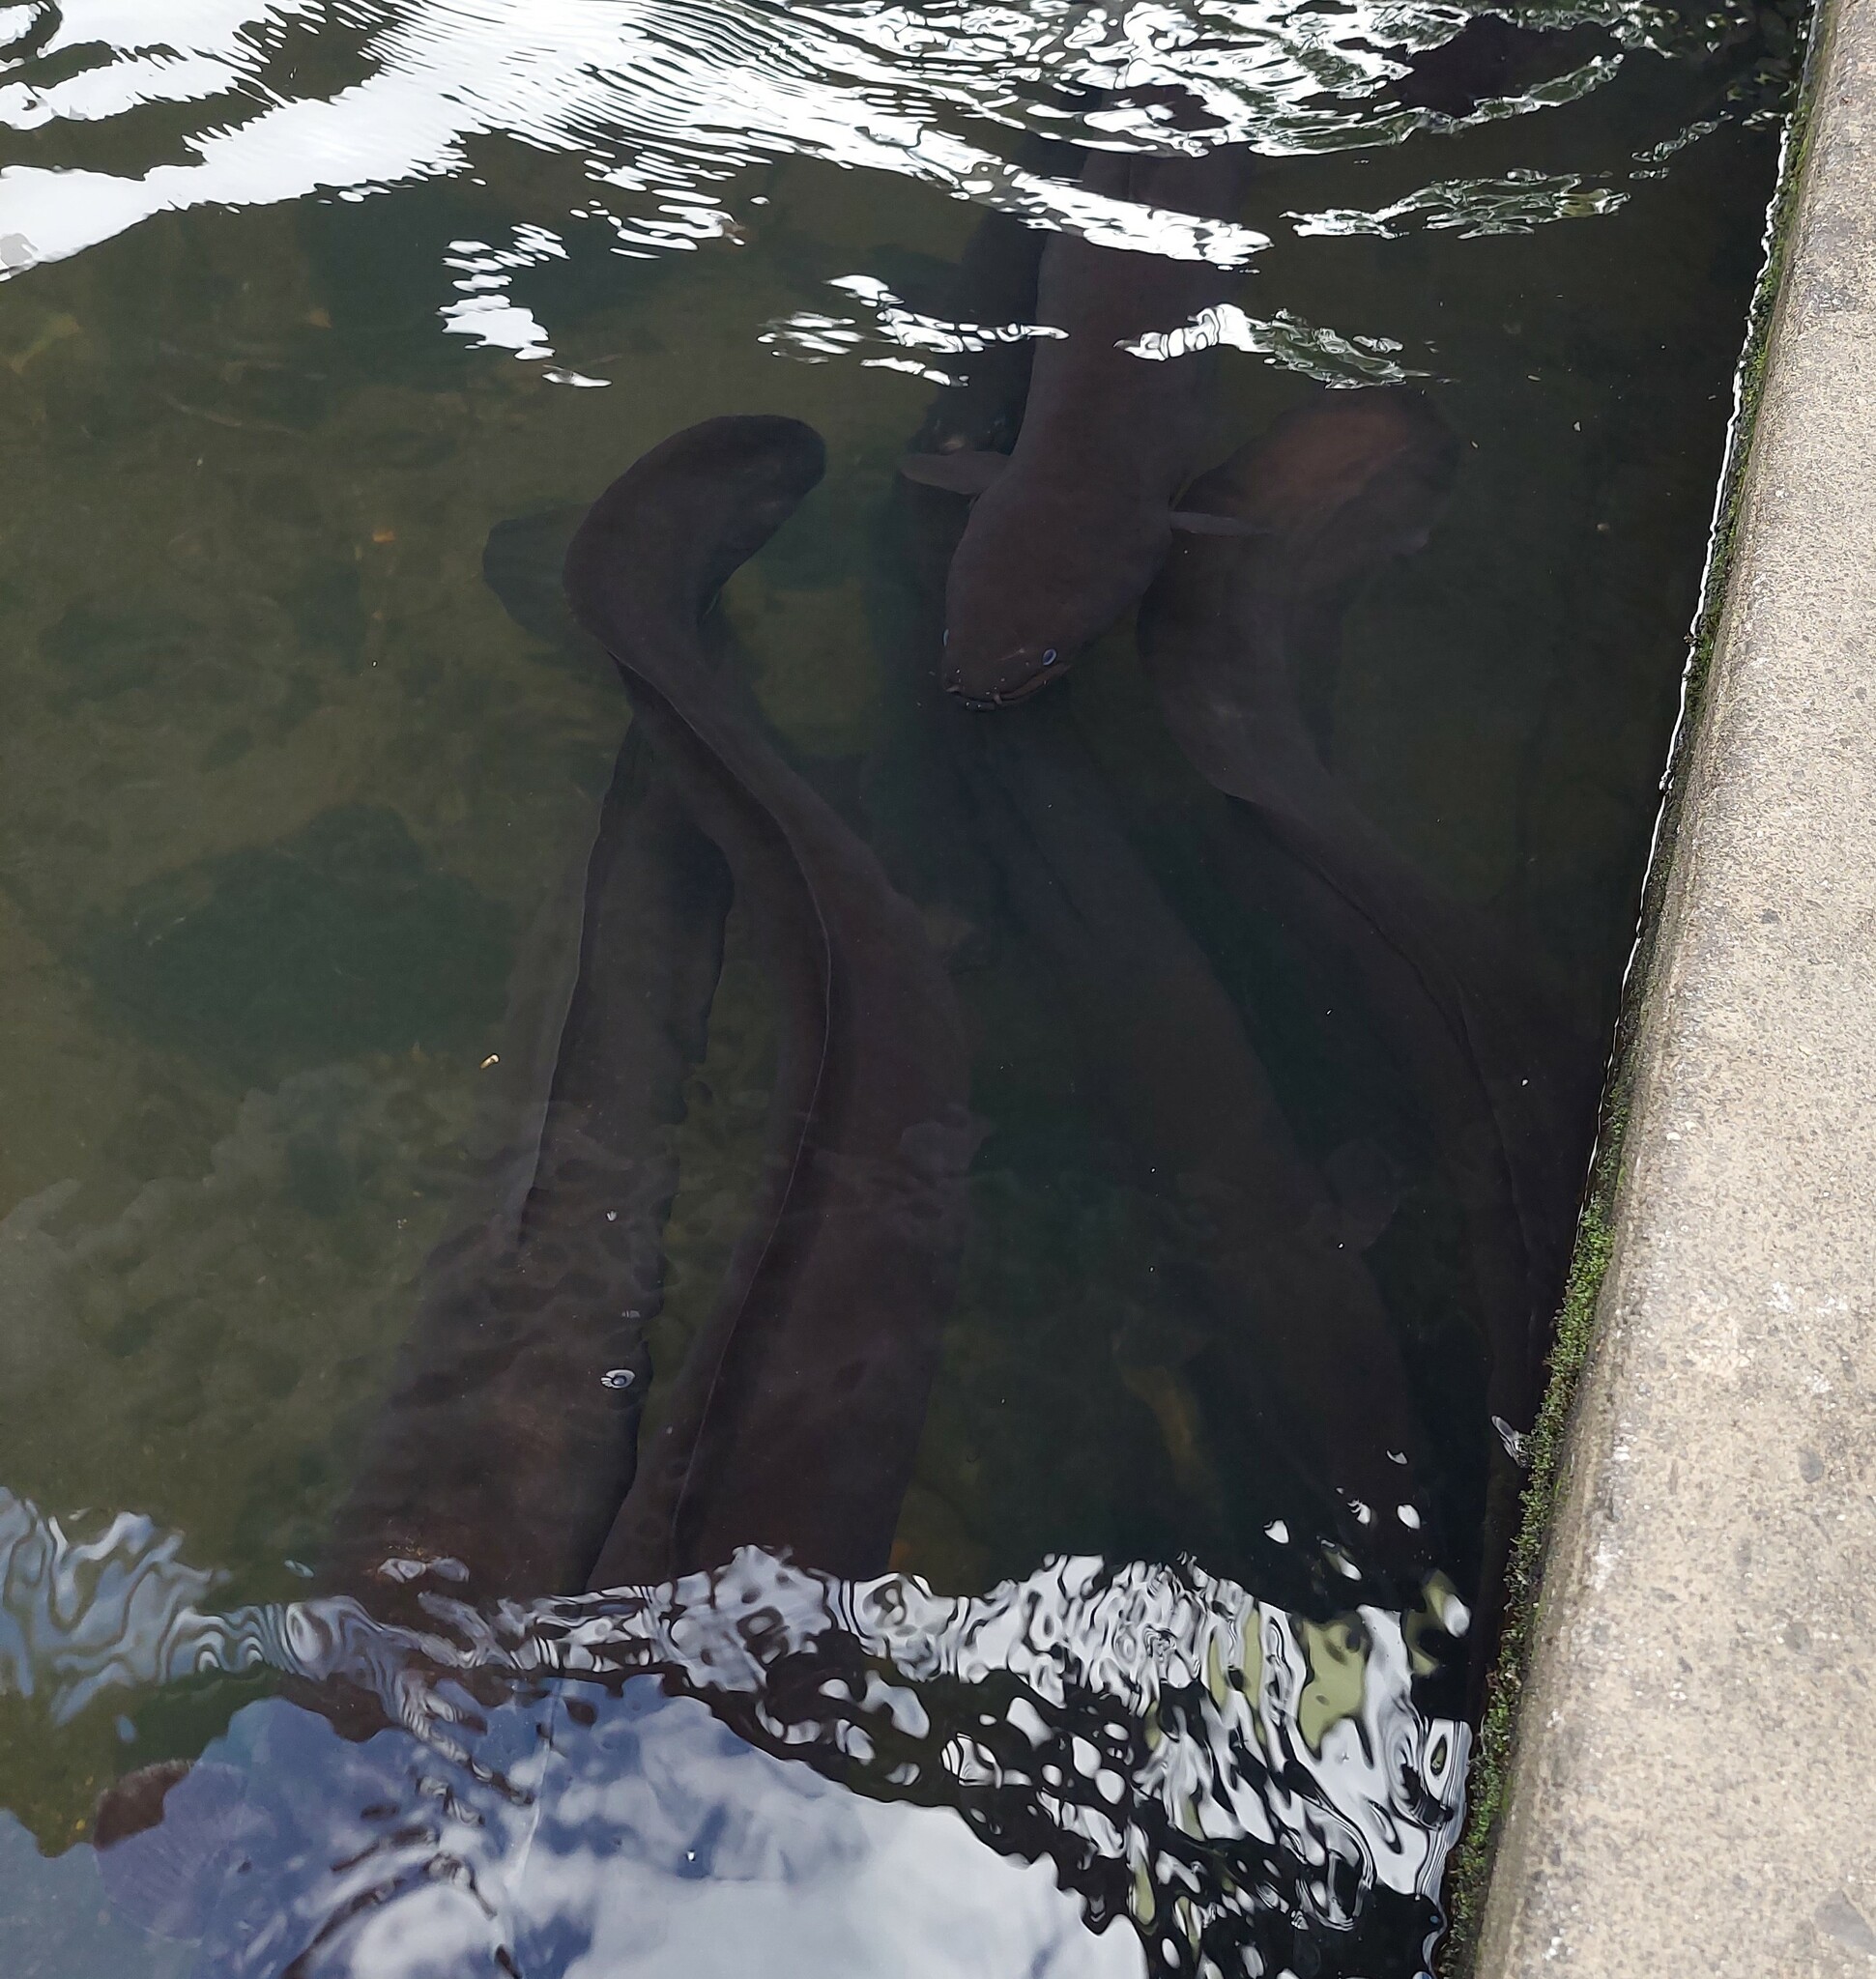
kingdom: Animalia
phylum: Chordata
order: Anguilliformes
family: Anguillidae
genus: Anguilla
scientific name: Anguilla dieffenbachii
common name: New zealand longfin eel
